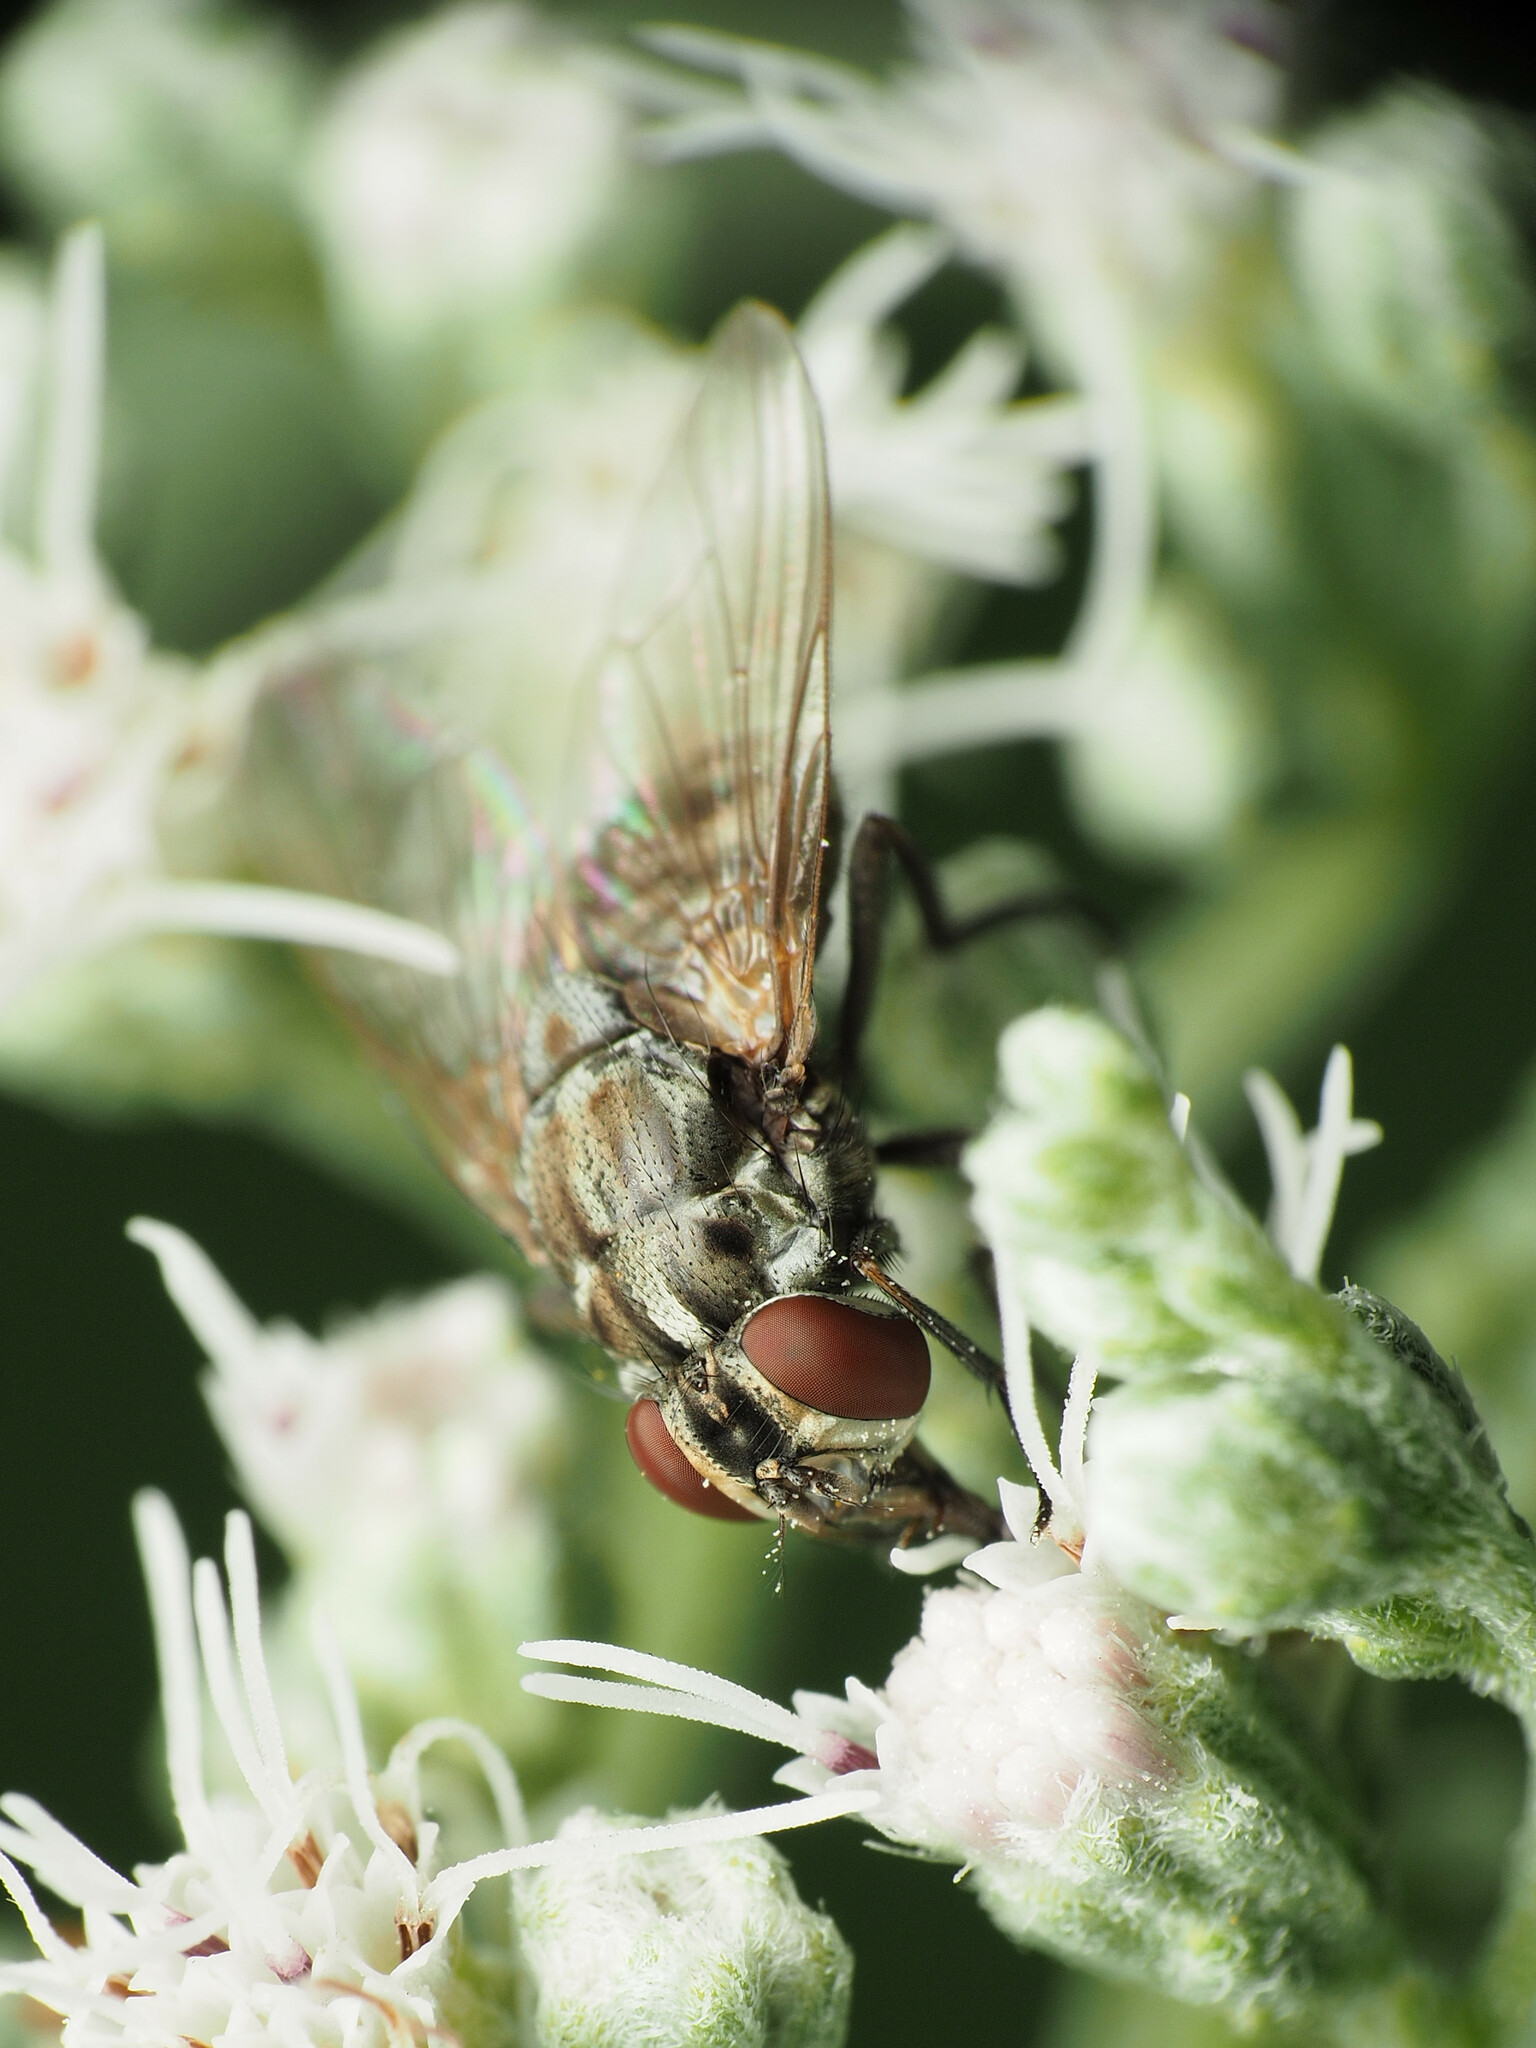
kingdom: Animalia
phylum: Arthropoda
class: Insecta
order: Diptera
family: Muscidae
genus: Stomoxys
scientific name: Stomoxys calcitrans
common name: Stable fly
